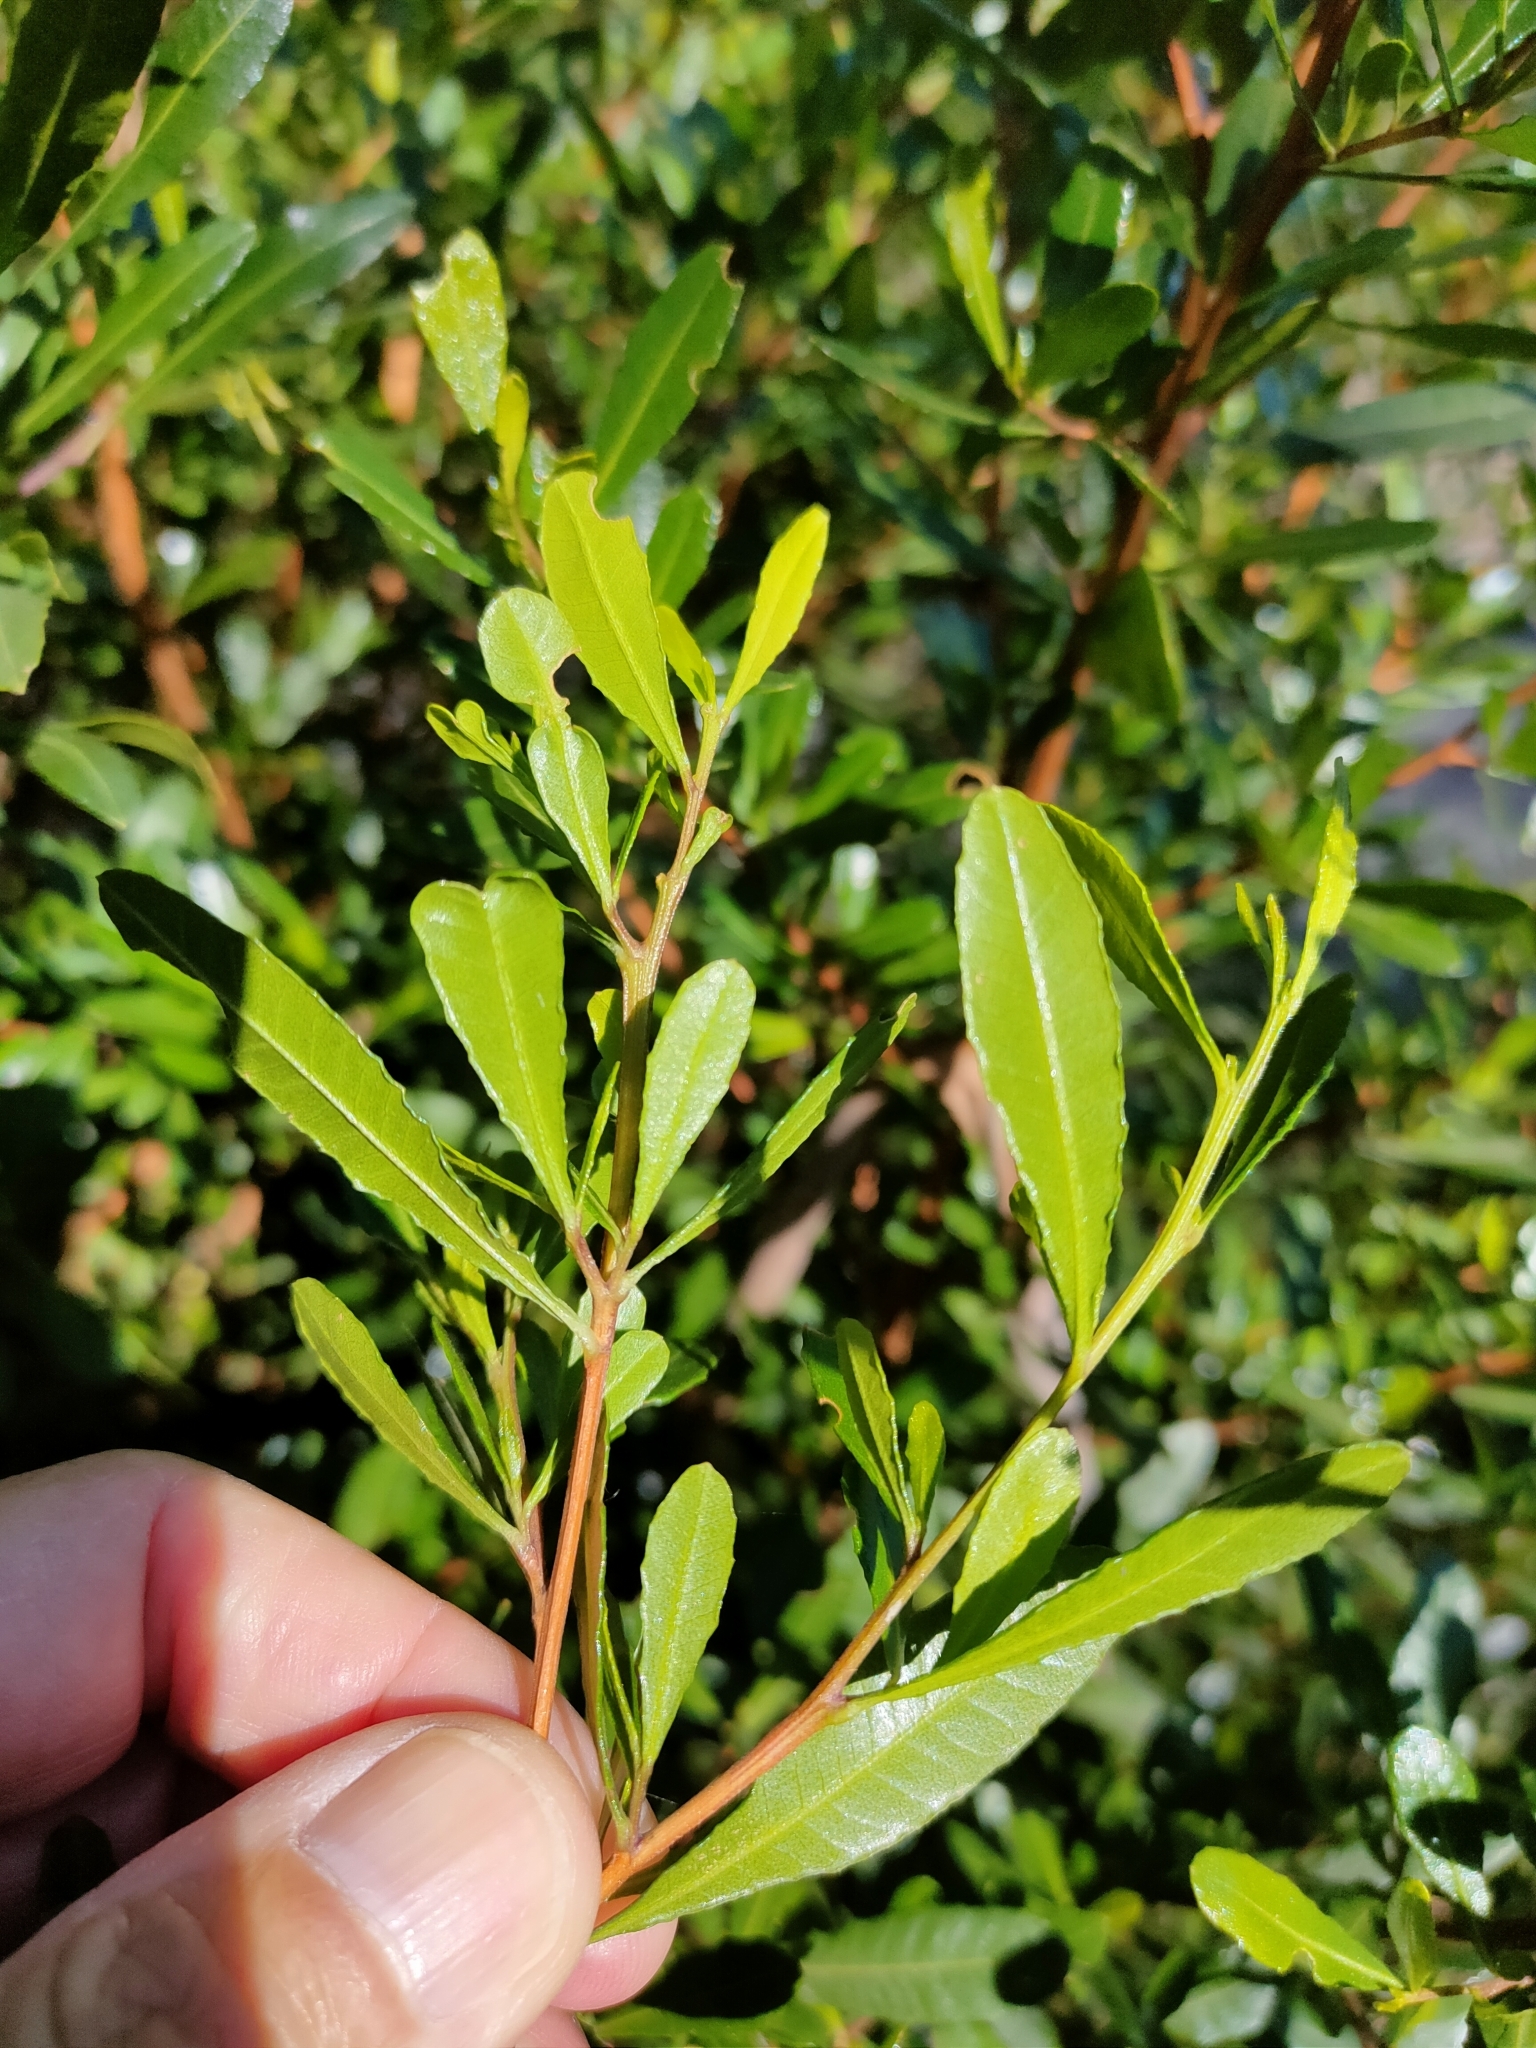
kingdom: Plantae
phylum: Tracheophyta
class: Magnoliopsida
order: Sapindales
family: Sapindaceae
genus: Dodonaea
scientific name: Dodonaea viscosa
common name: Hopbush
